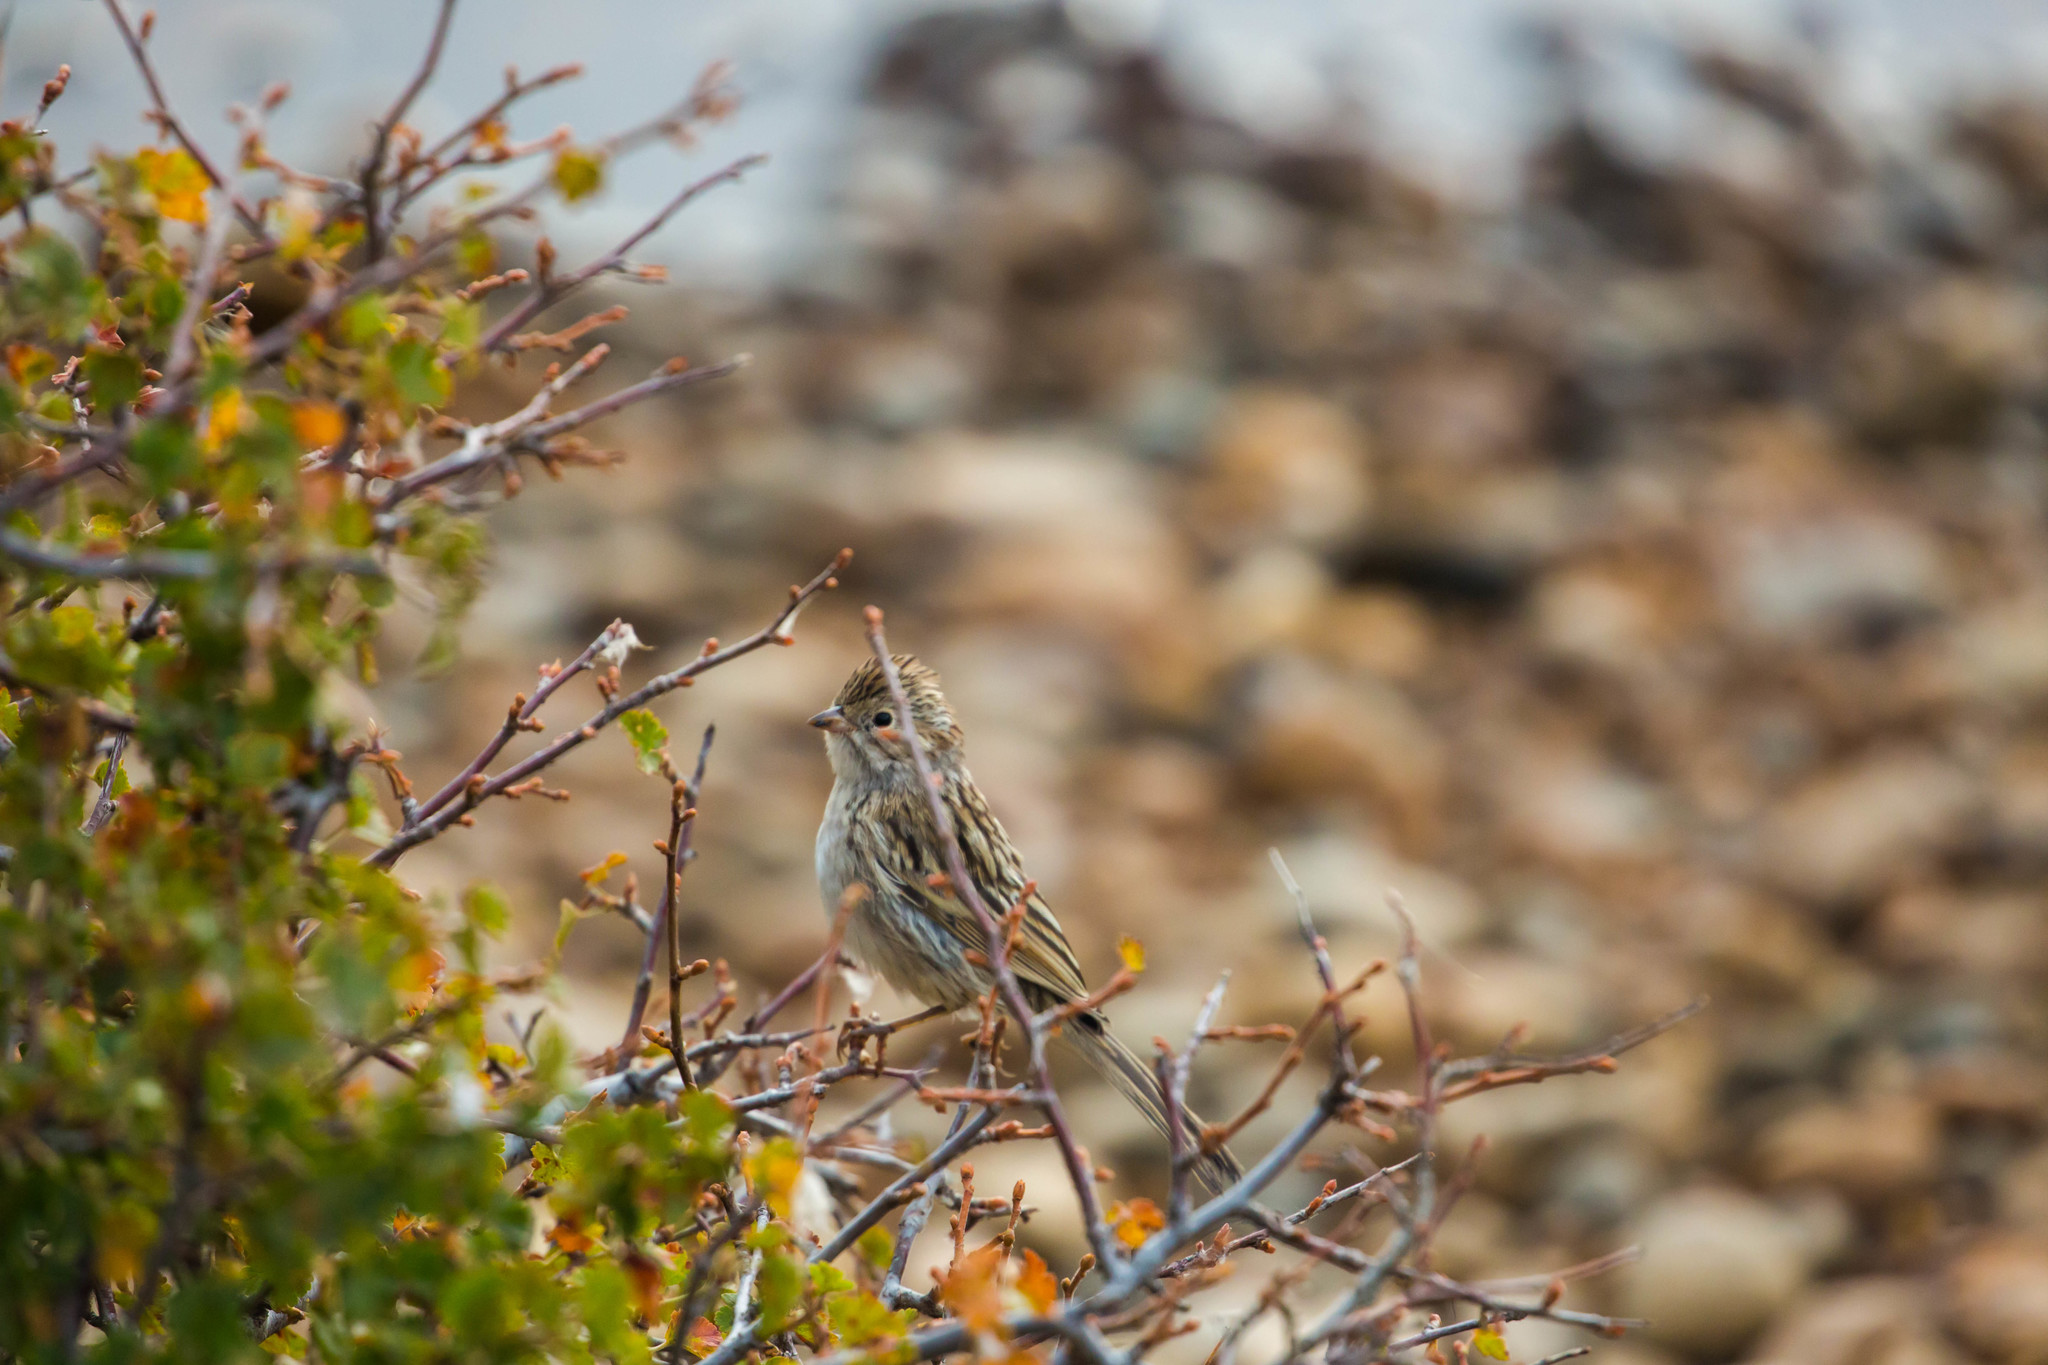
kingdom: Animalia
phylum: Chordata
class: Aves
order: Passeriformes
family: Passerellidae
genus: Spizella
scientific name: Spizella breweri
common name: Brewer's sparrow
